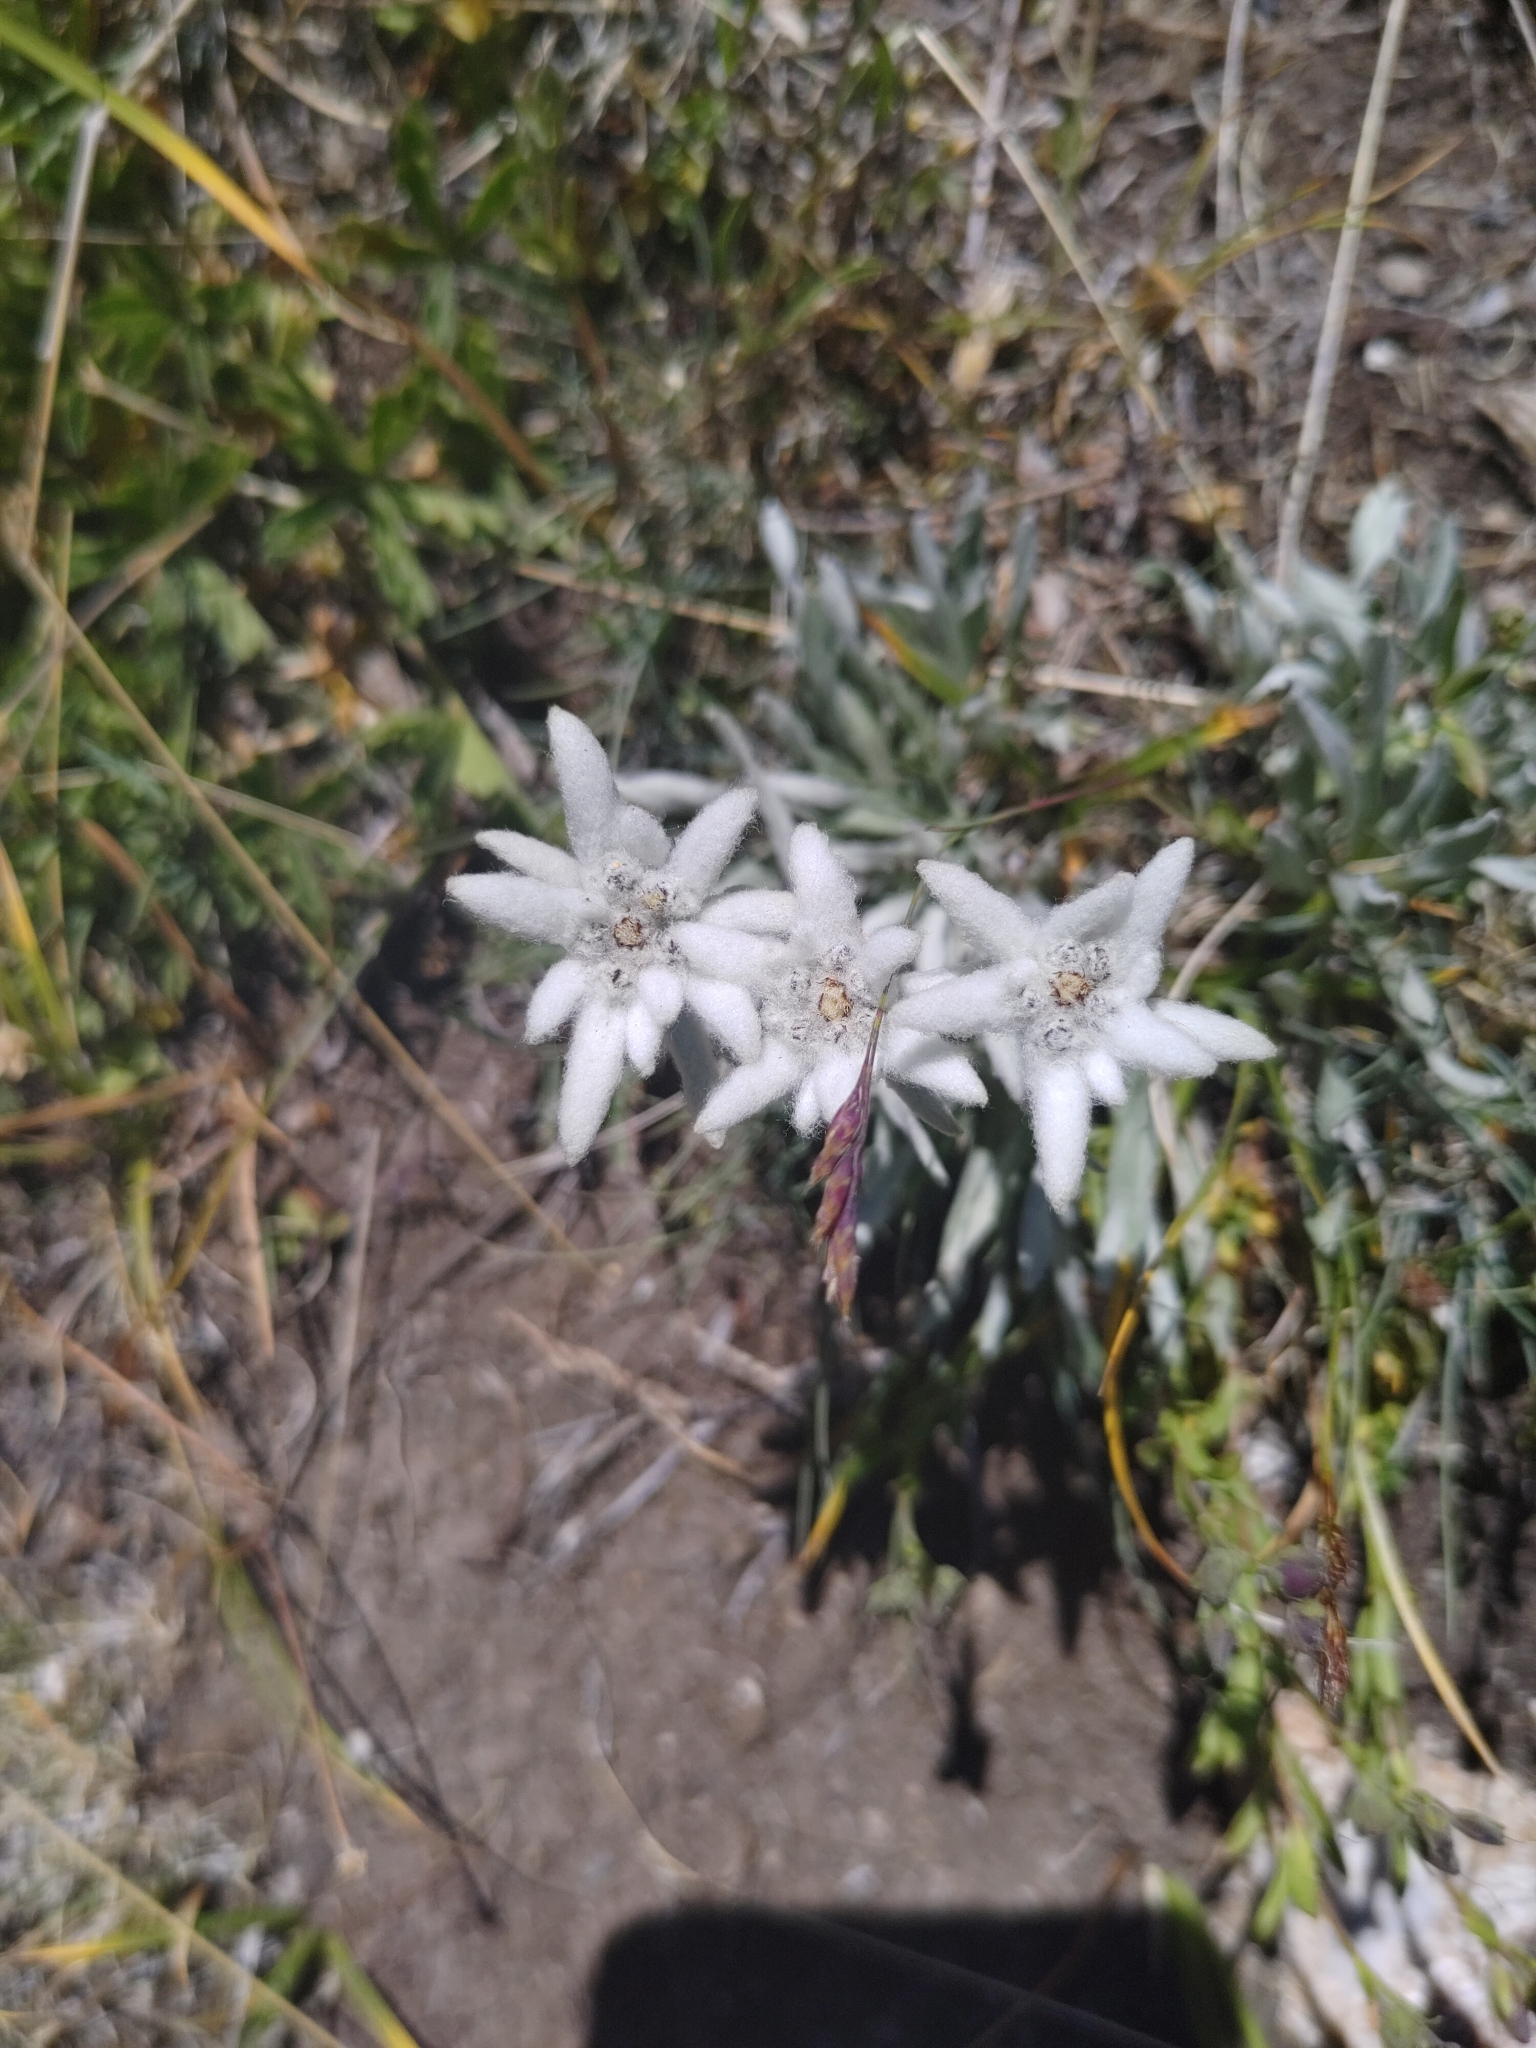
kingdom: Plantae
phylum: Tracheophyta
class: Magnoliopsida
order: Asterales
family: Asteraceae
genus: Leontopodium
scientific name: Leontopodium nivale
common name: Edelweiss
